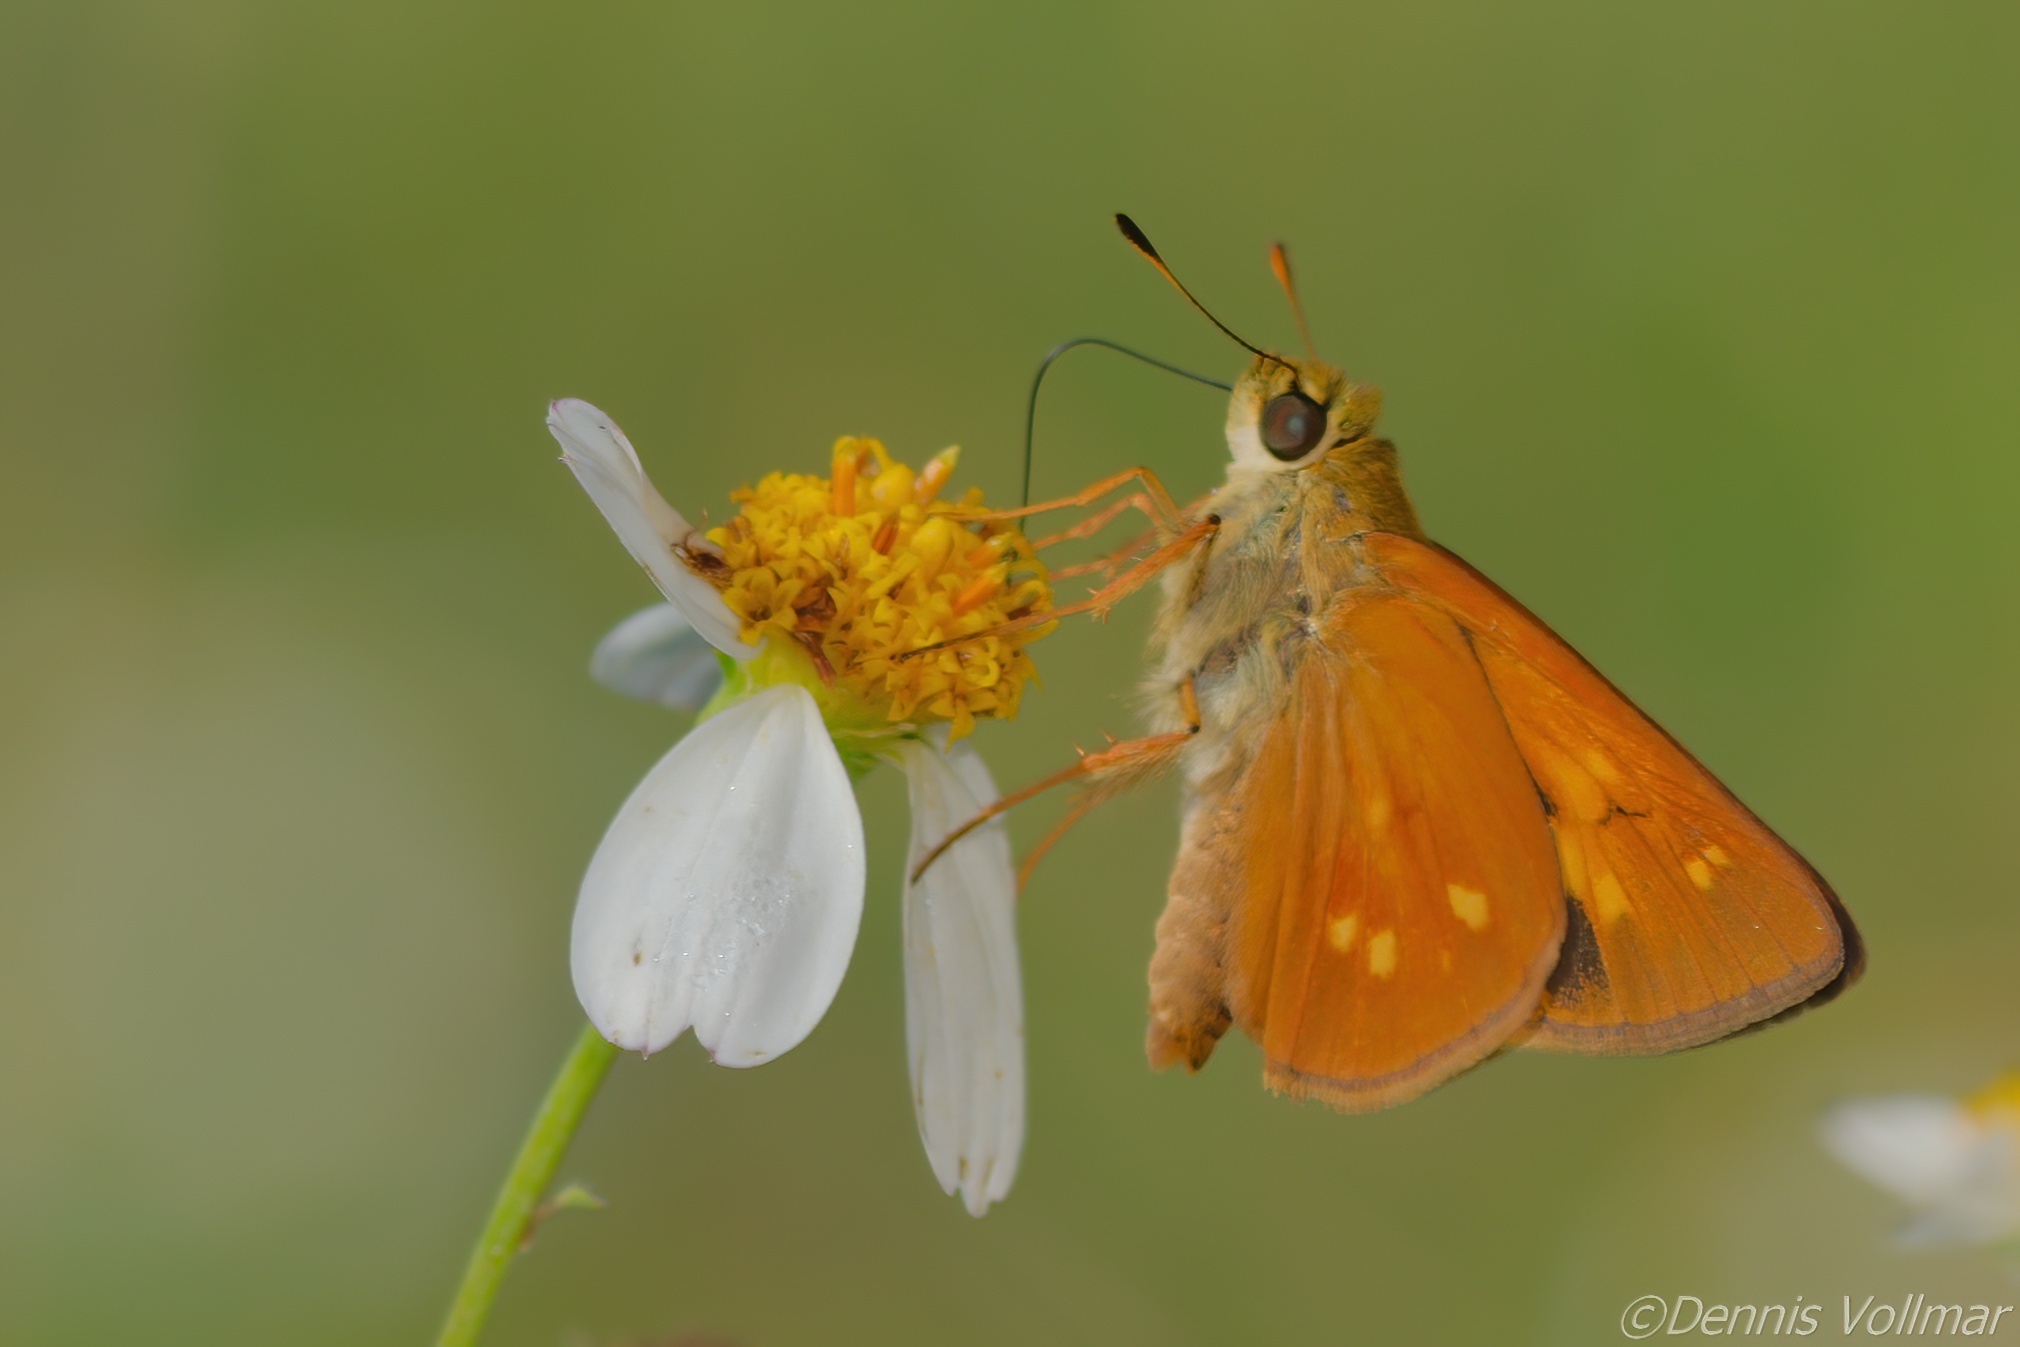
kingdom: Animalia
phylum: Arthropoda
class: Insecta
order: Lepidoptera
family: Hesperiidae
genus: Poanes
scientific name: Poanes yehl
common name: Yehl skipper
